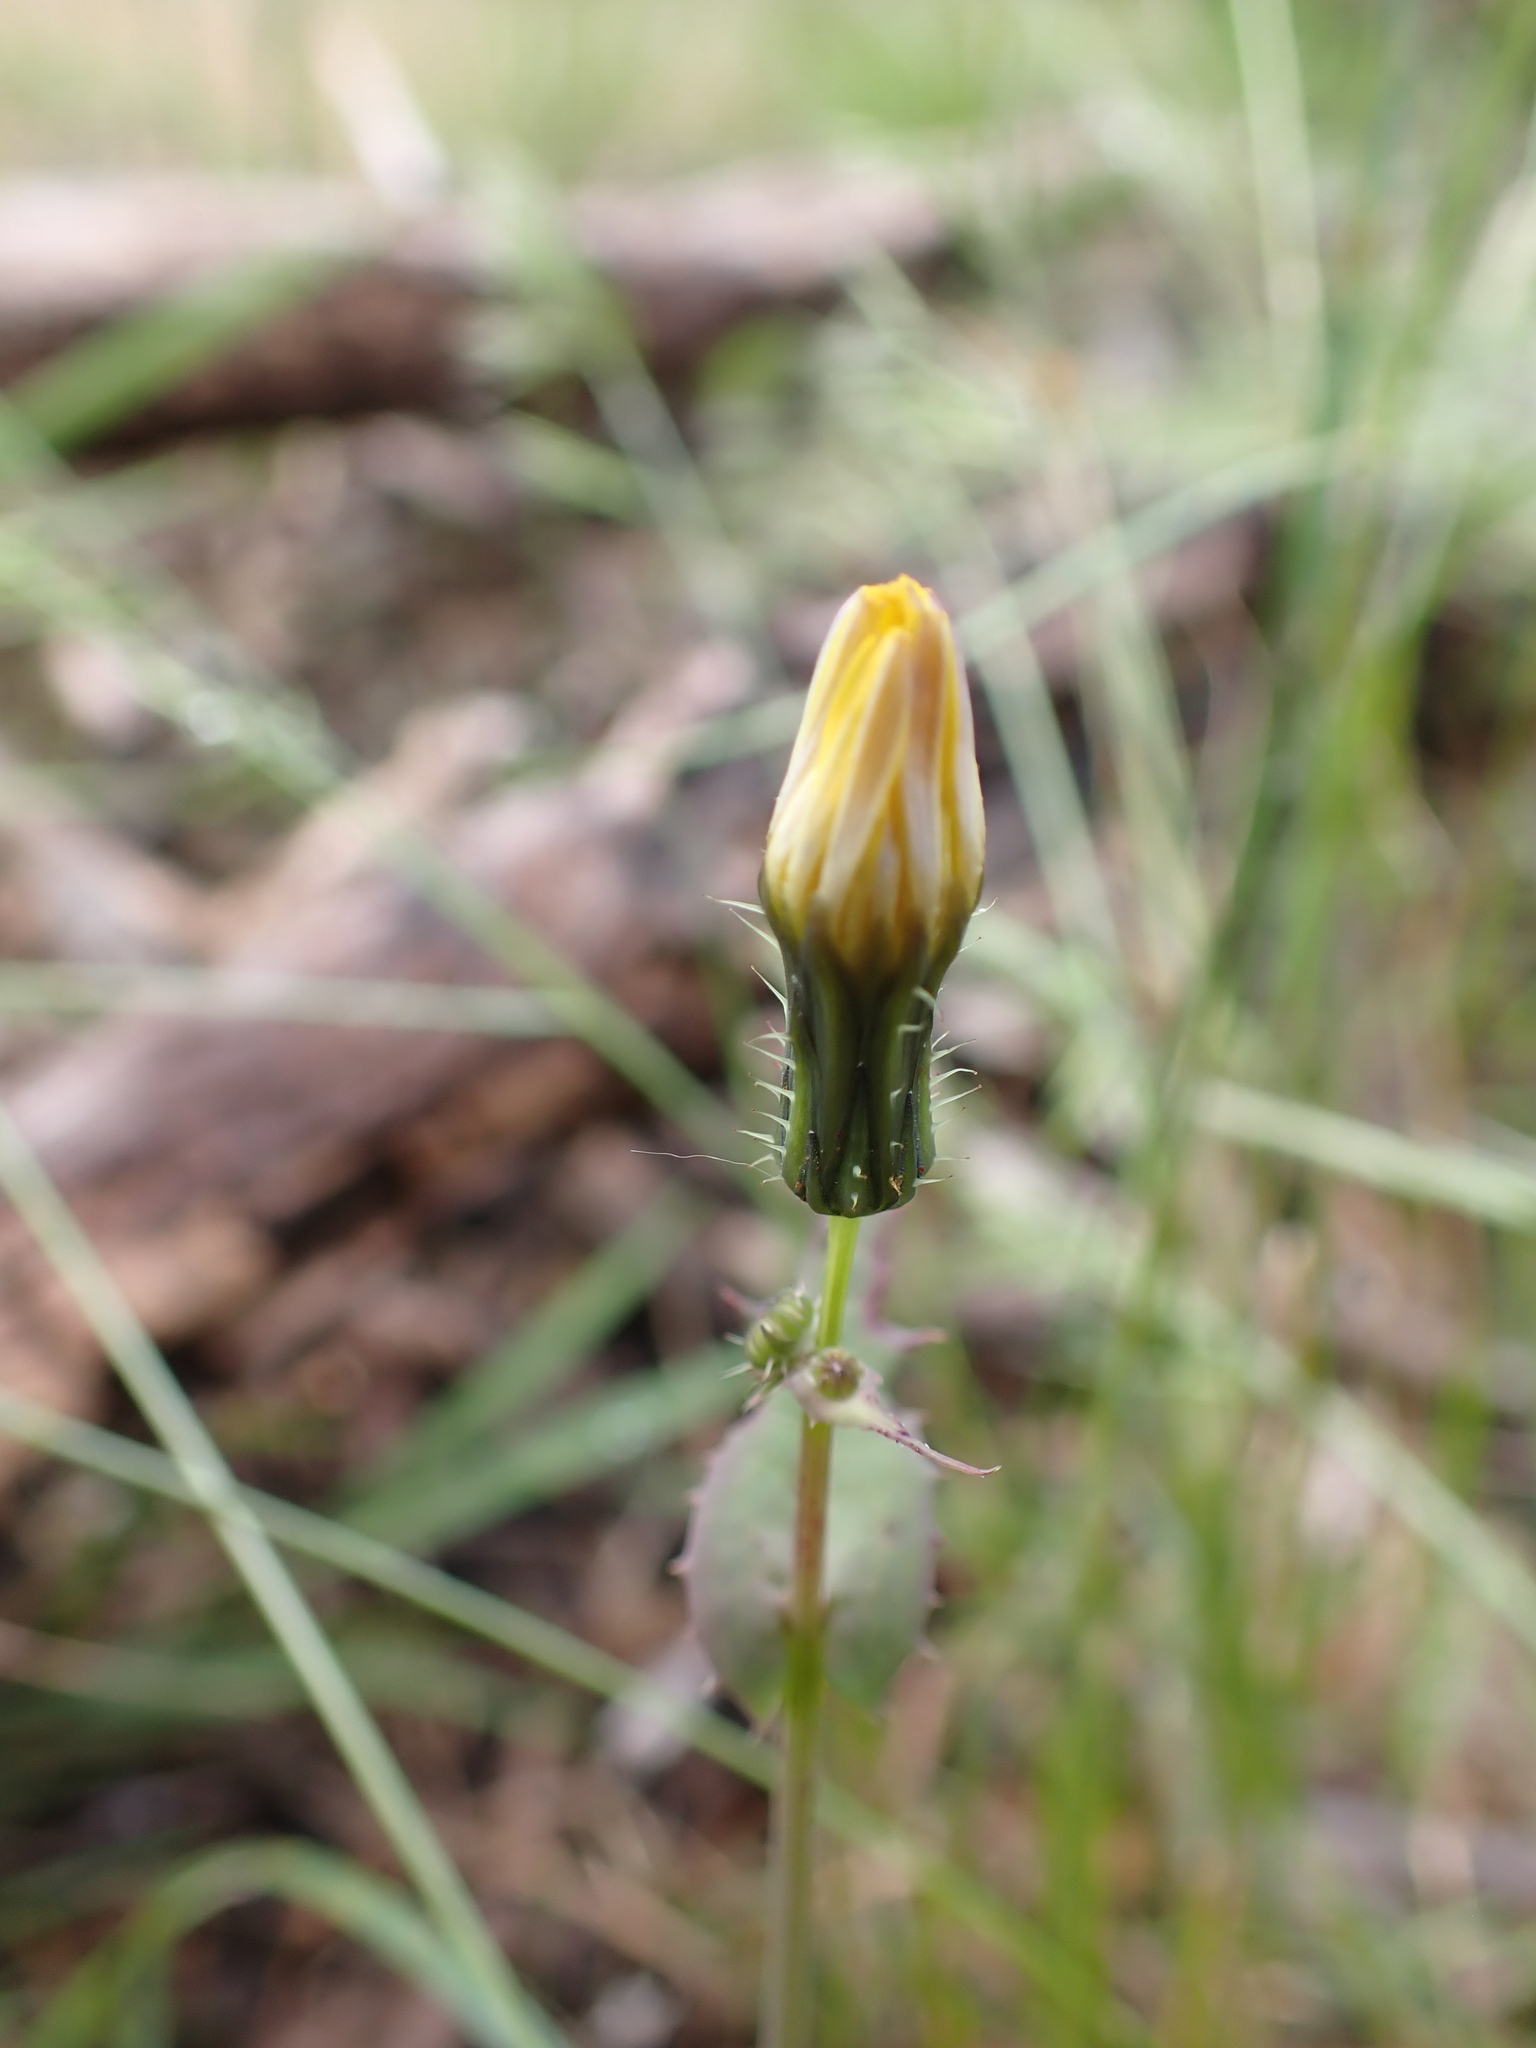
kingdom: Plantae
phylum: Tracheophyta
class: Magnoliopsida
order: Asterales
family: Asteraceae
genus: Sonchus
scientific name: Sonchus oleraceus
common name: Common sowthistle
